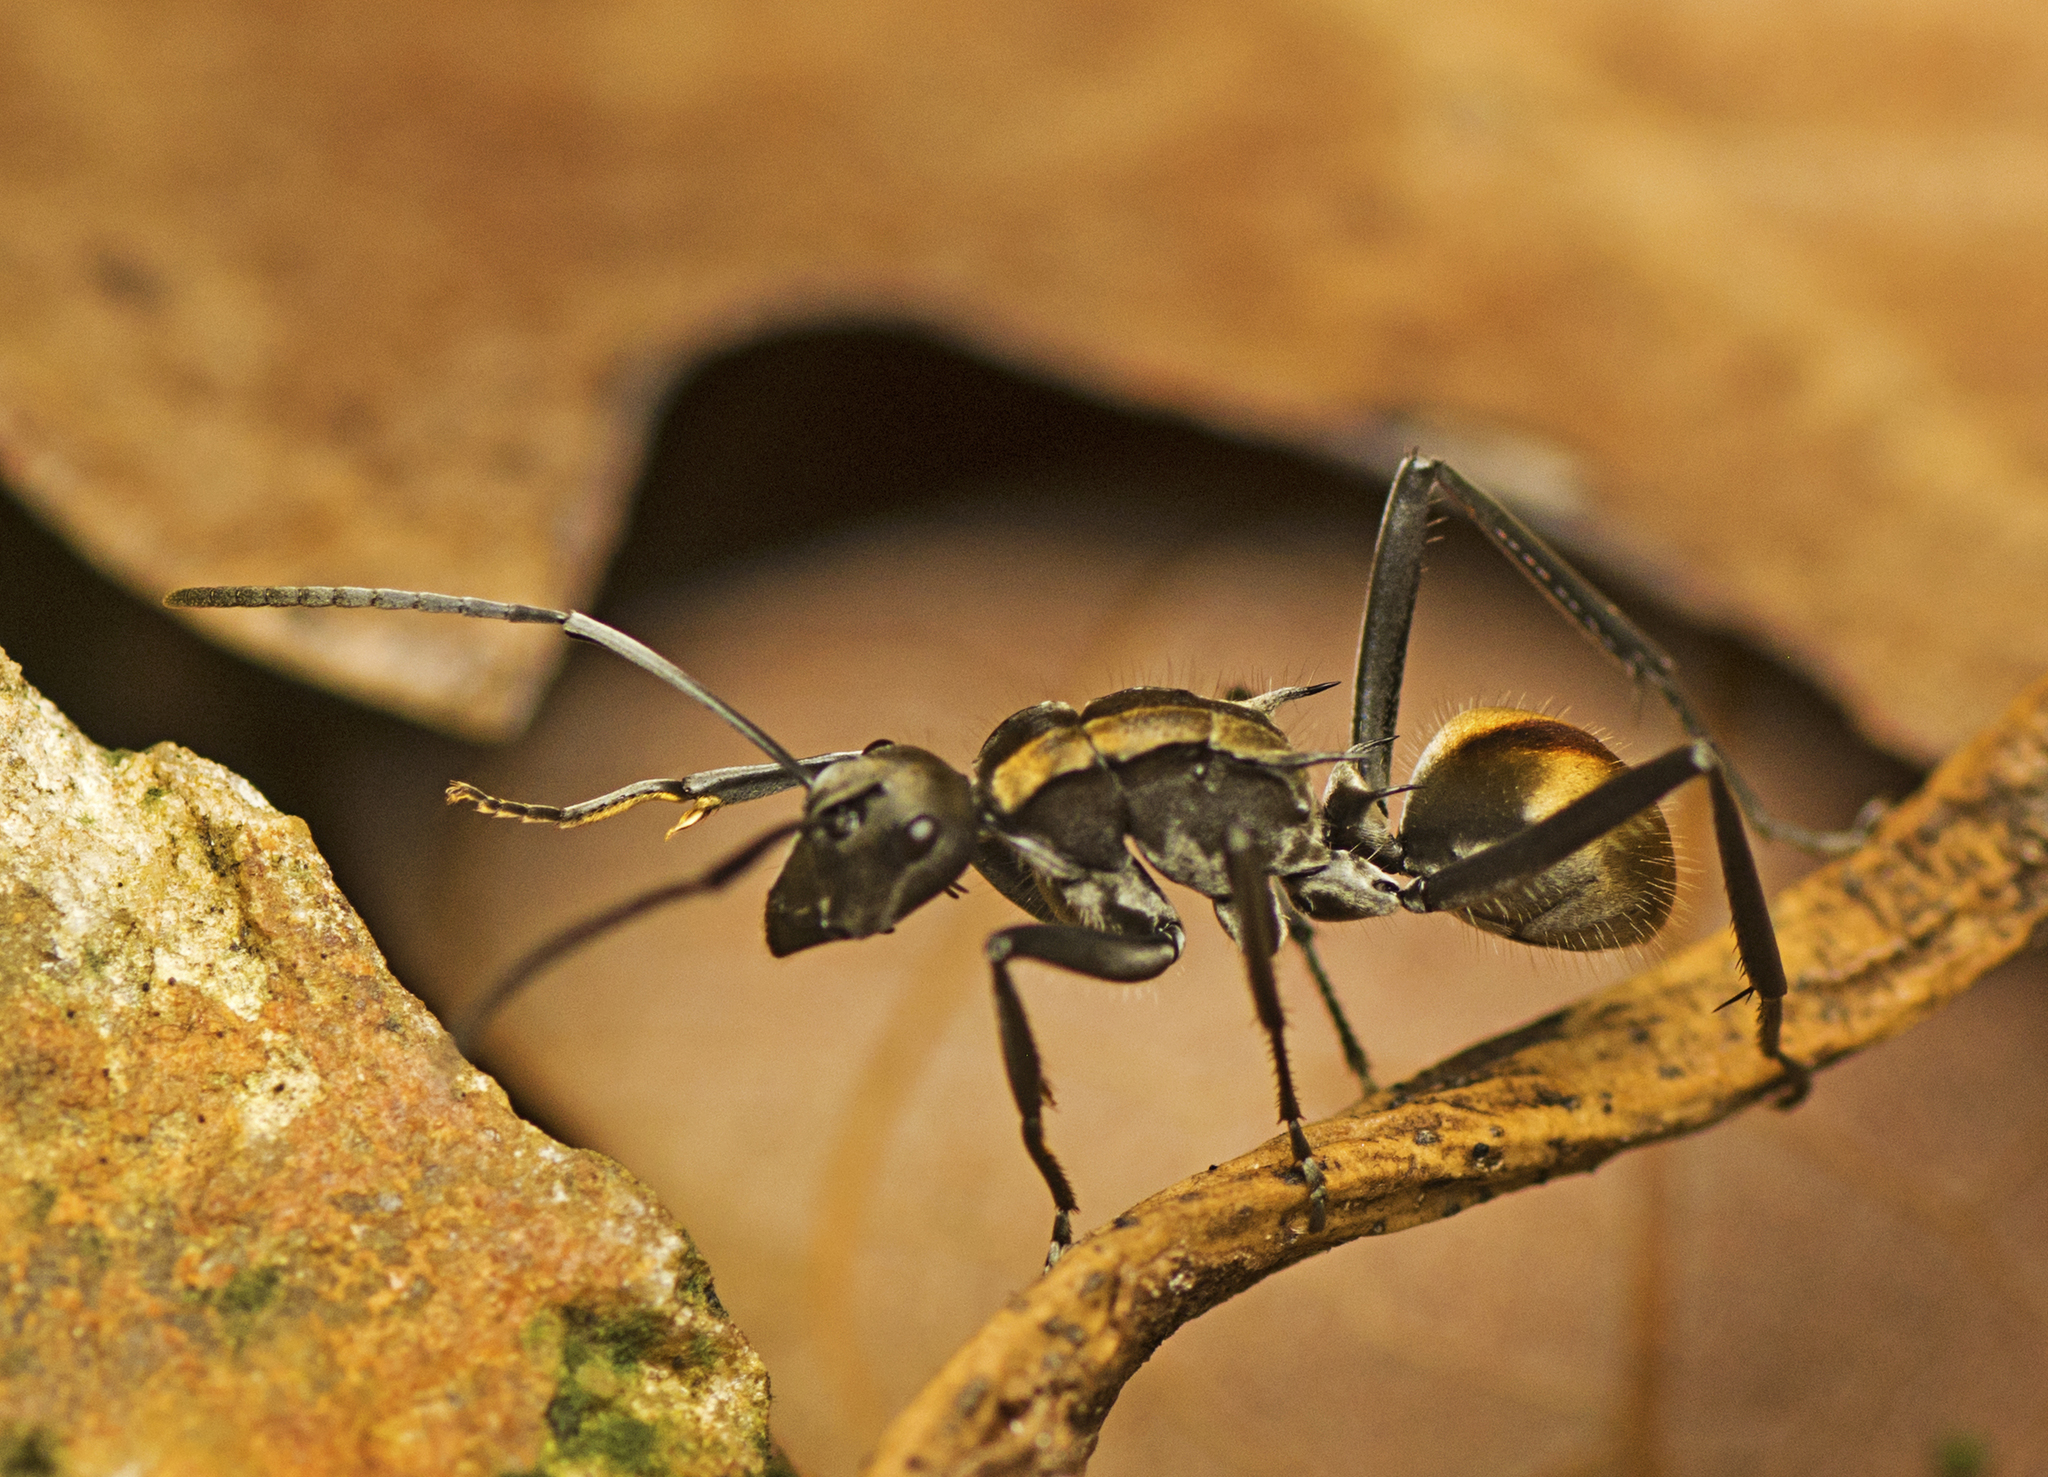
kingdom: Animalia
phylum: Arthropoda
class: Insecta
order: Hymenoptera
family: Formicidae
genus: Polyrhachis
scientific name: Polyrhachis
